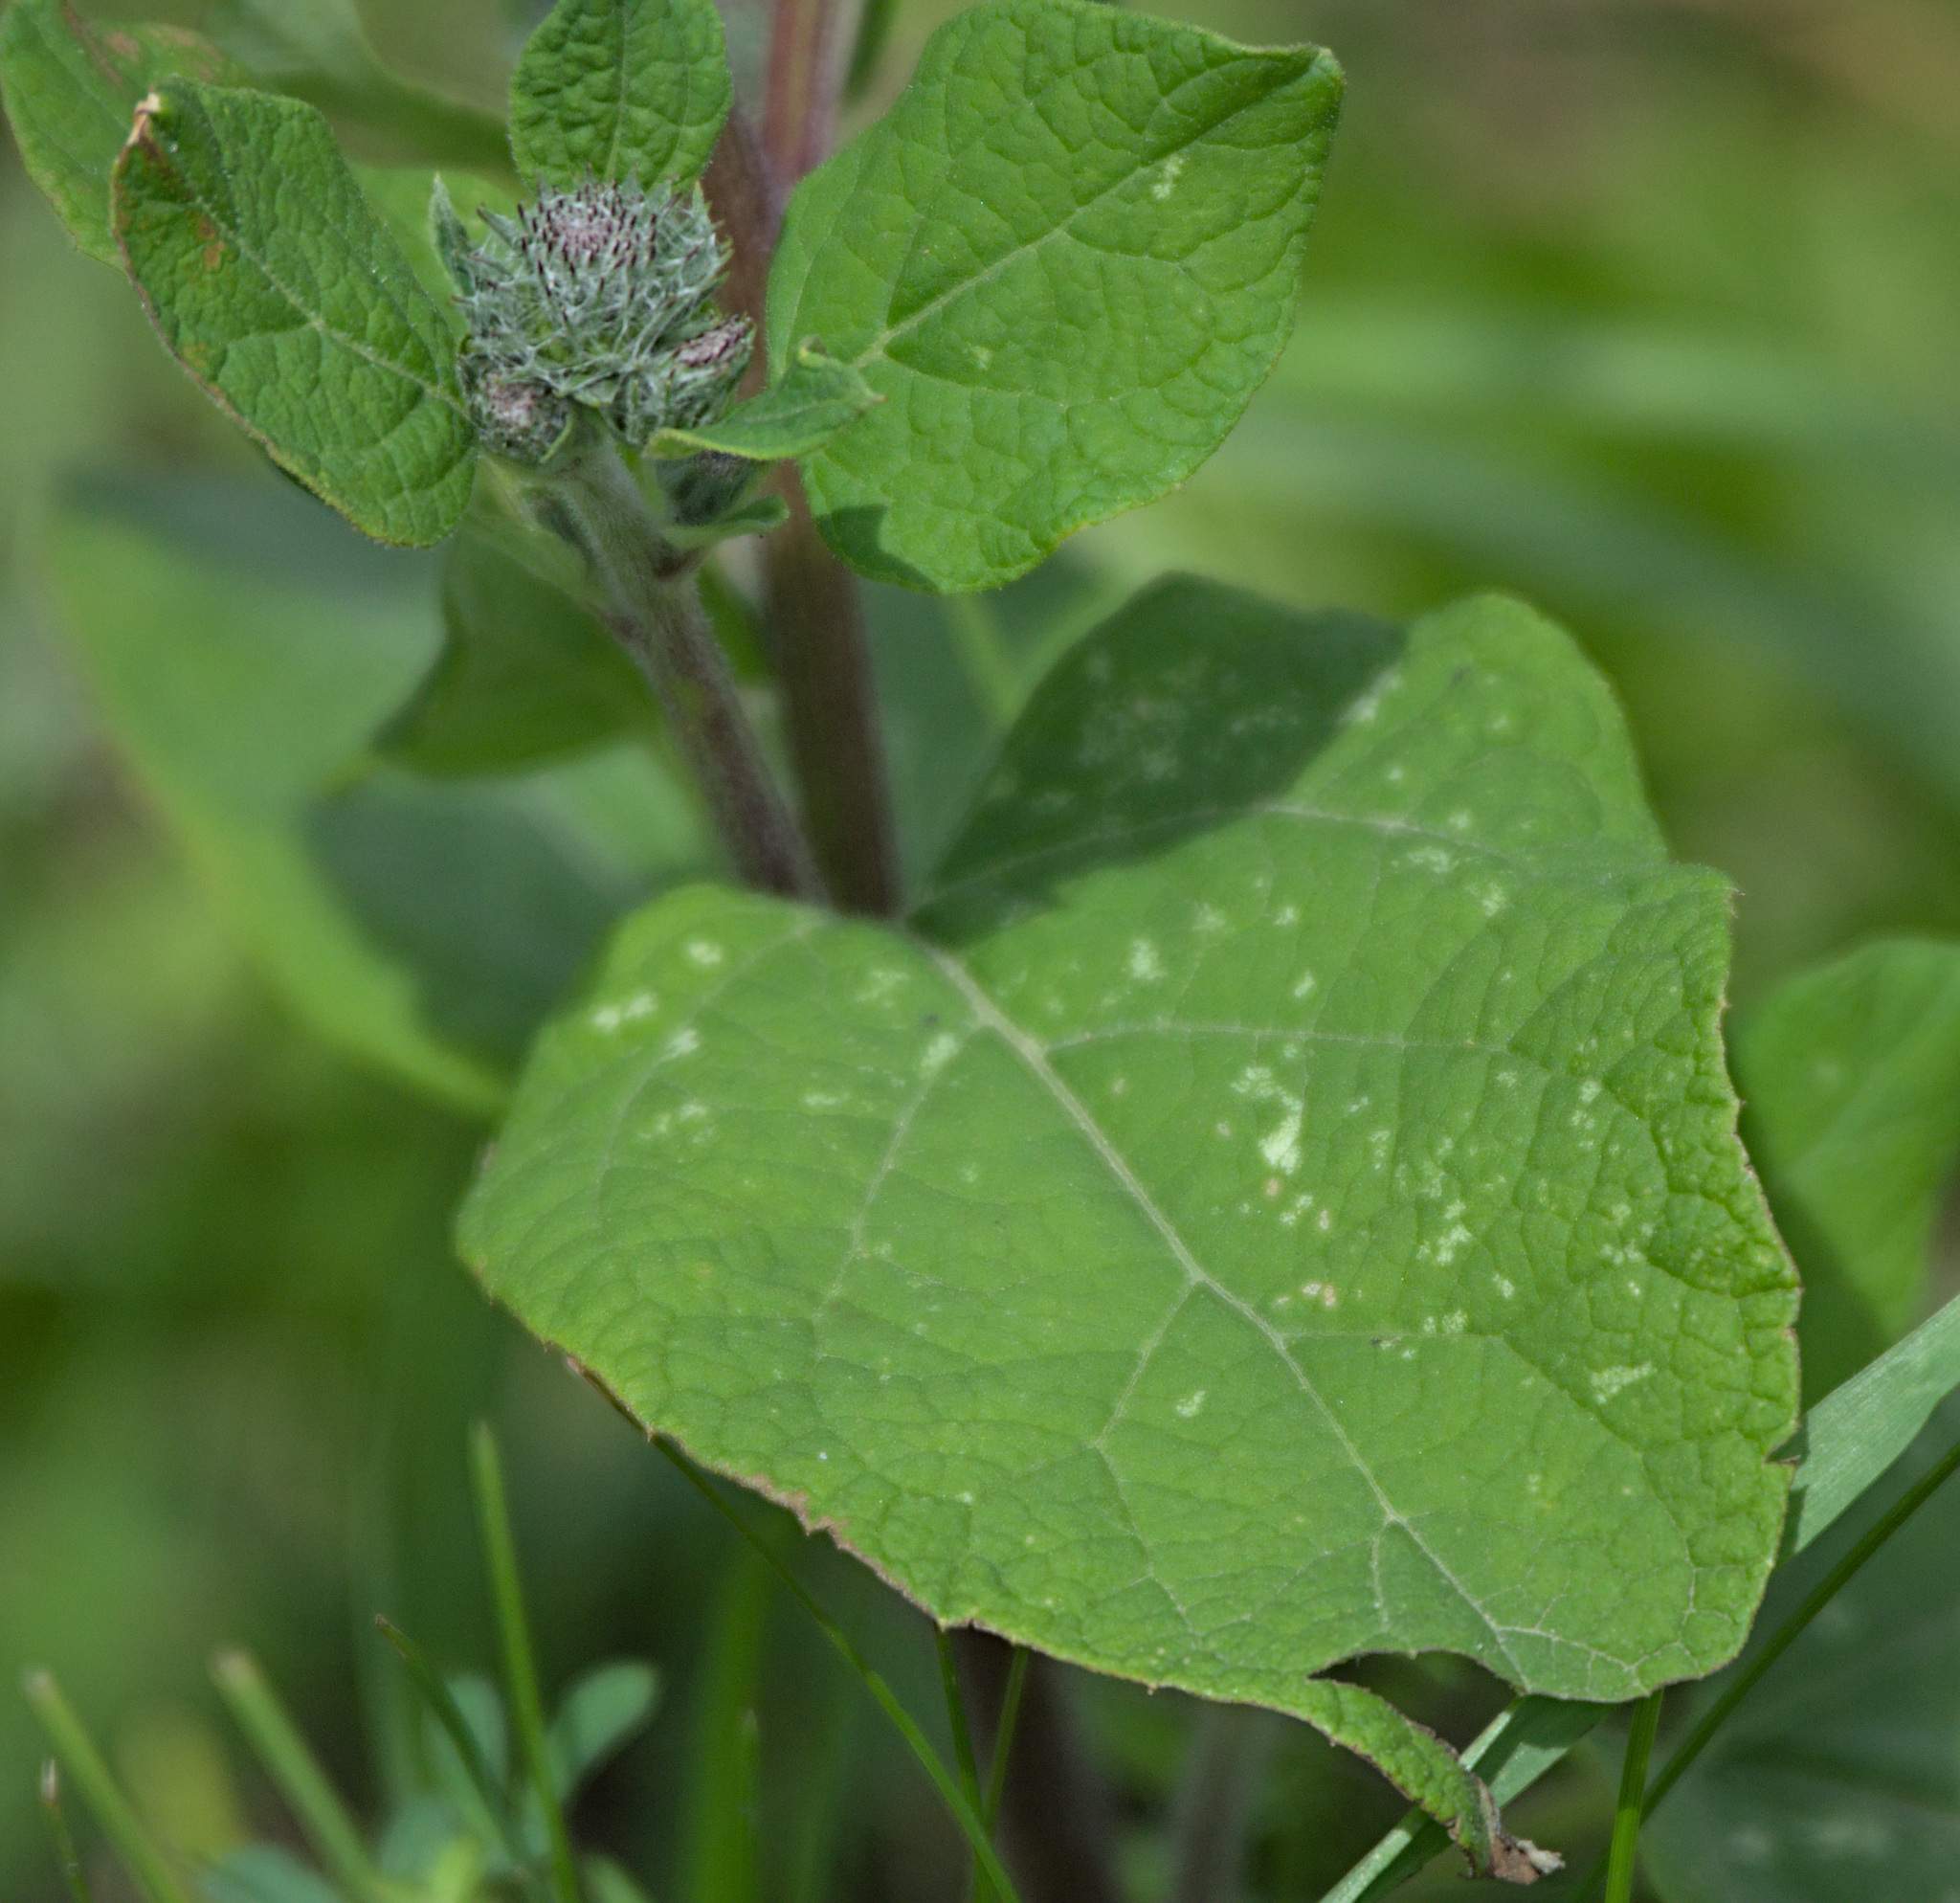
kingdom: Plantae
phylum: Tracheophyta
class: Magnoliopsida
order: Asterales
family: Asteraceae
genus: Arctium
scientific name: Arctium tomentosum
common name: Woolly burdock
